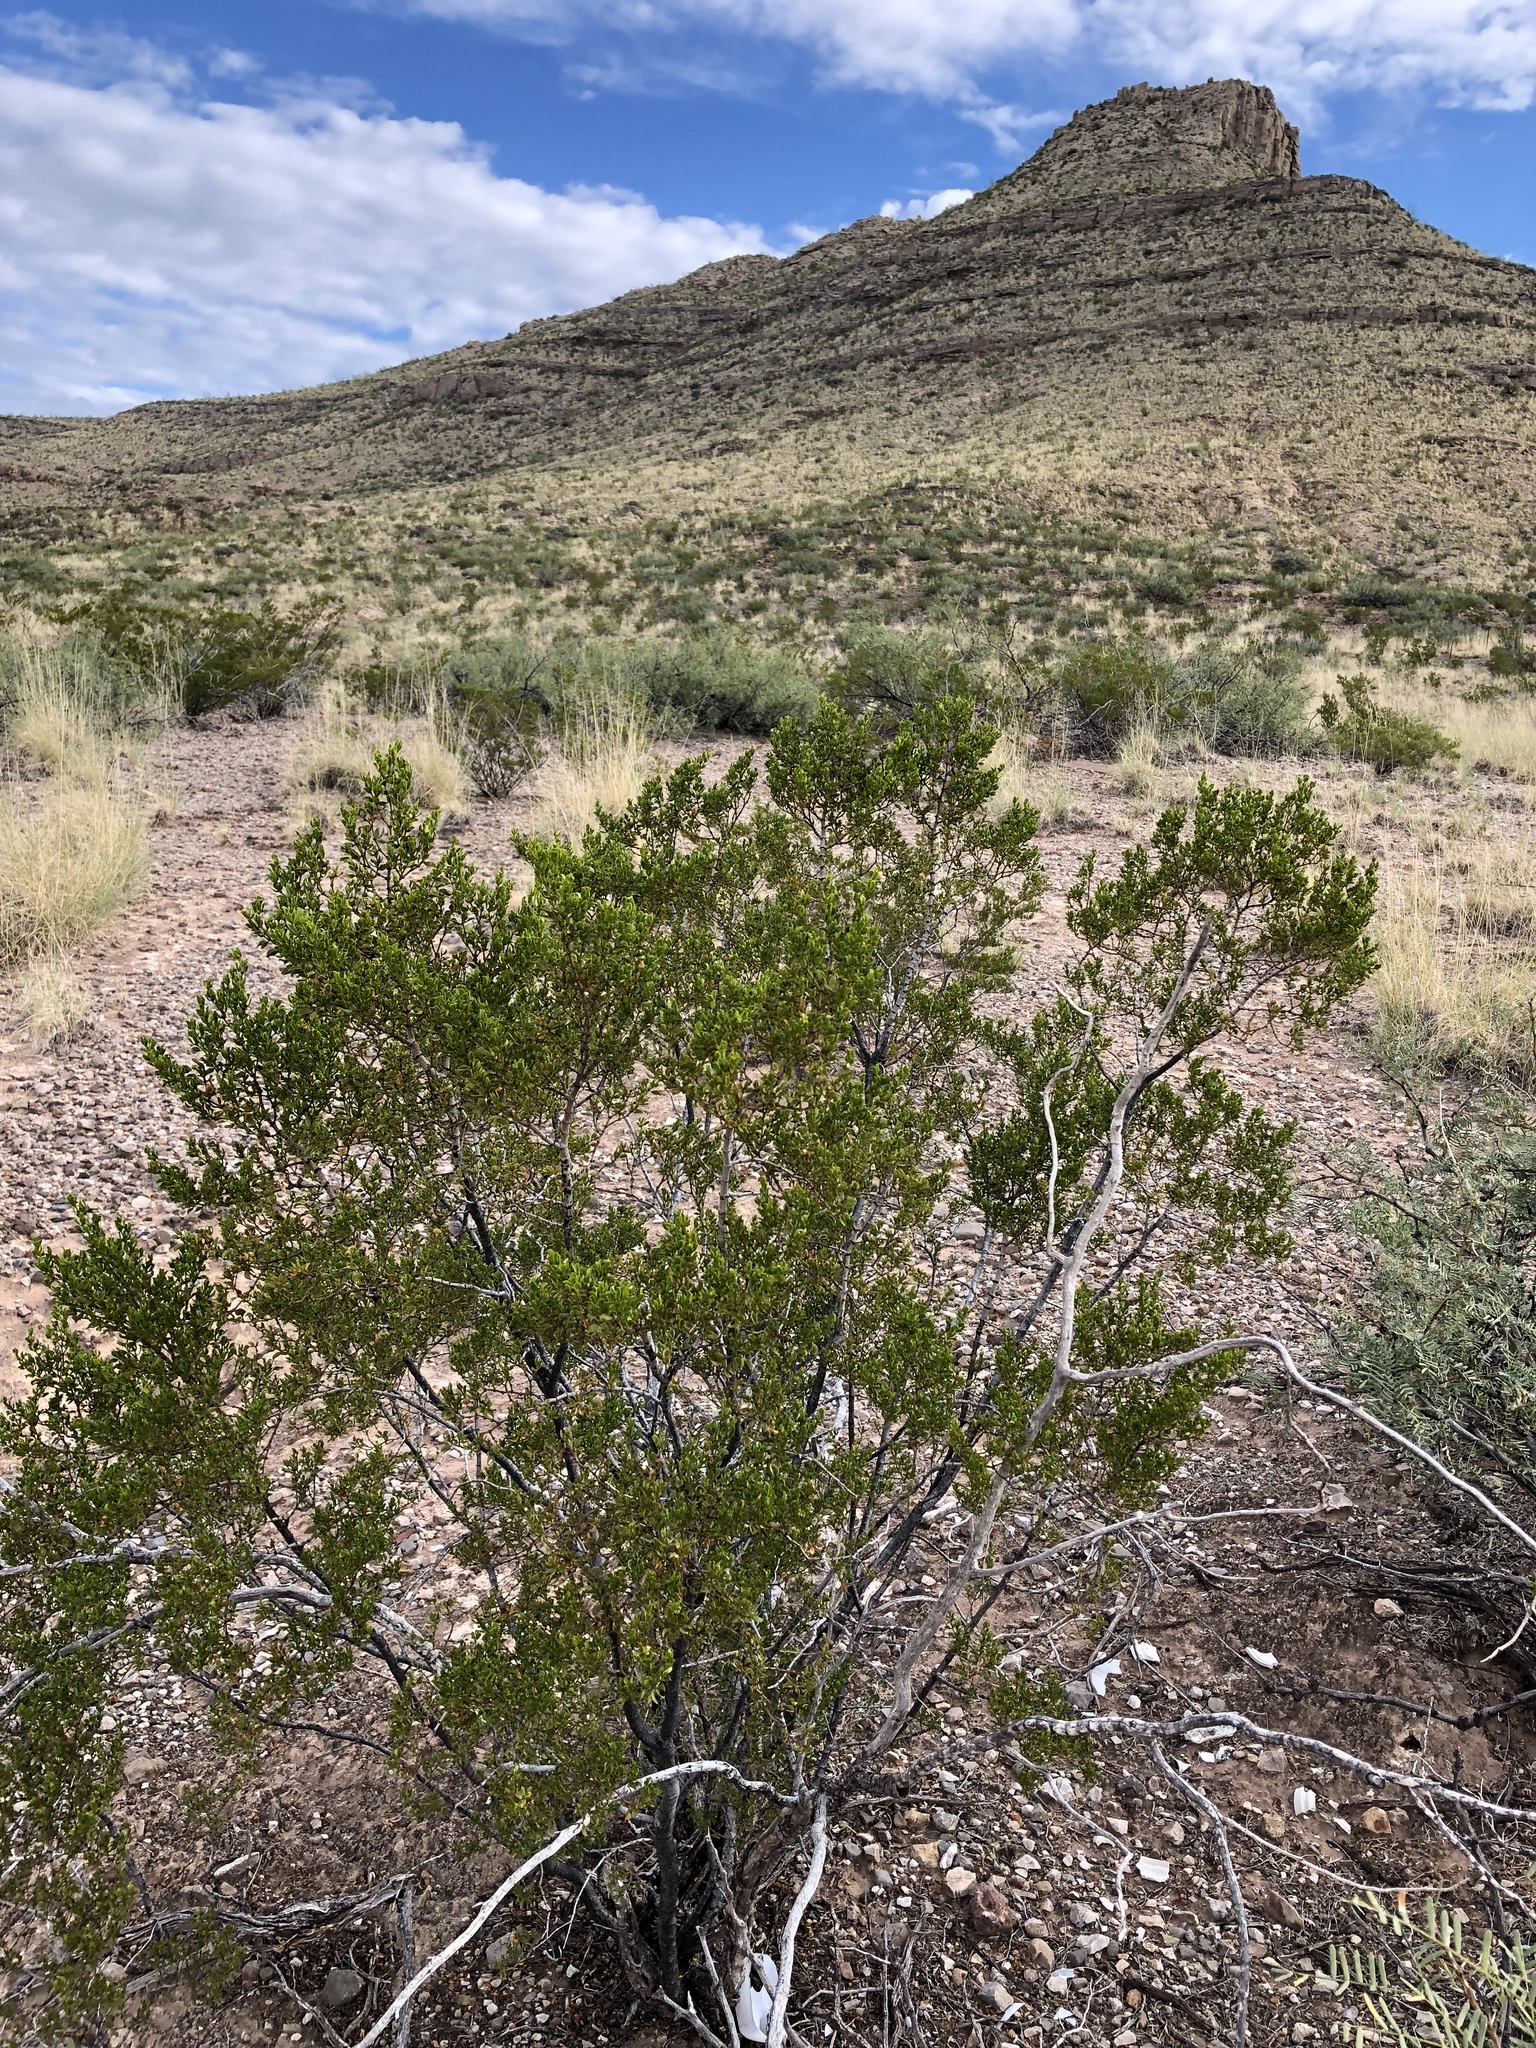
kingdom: Plantae
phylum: Tracheophyta
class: Magnoliopsida
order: Zygophyllales
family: Zygophyllaceae
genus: Larrea
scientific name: Larrea tridentata
